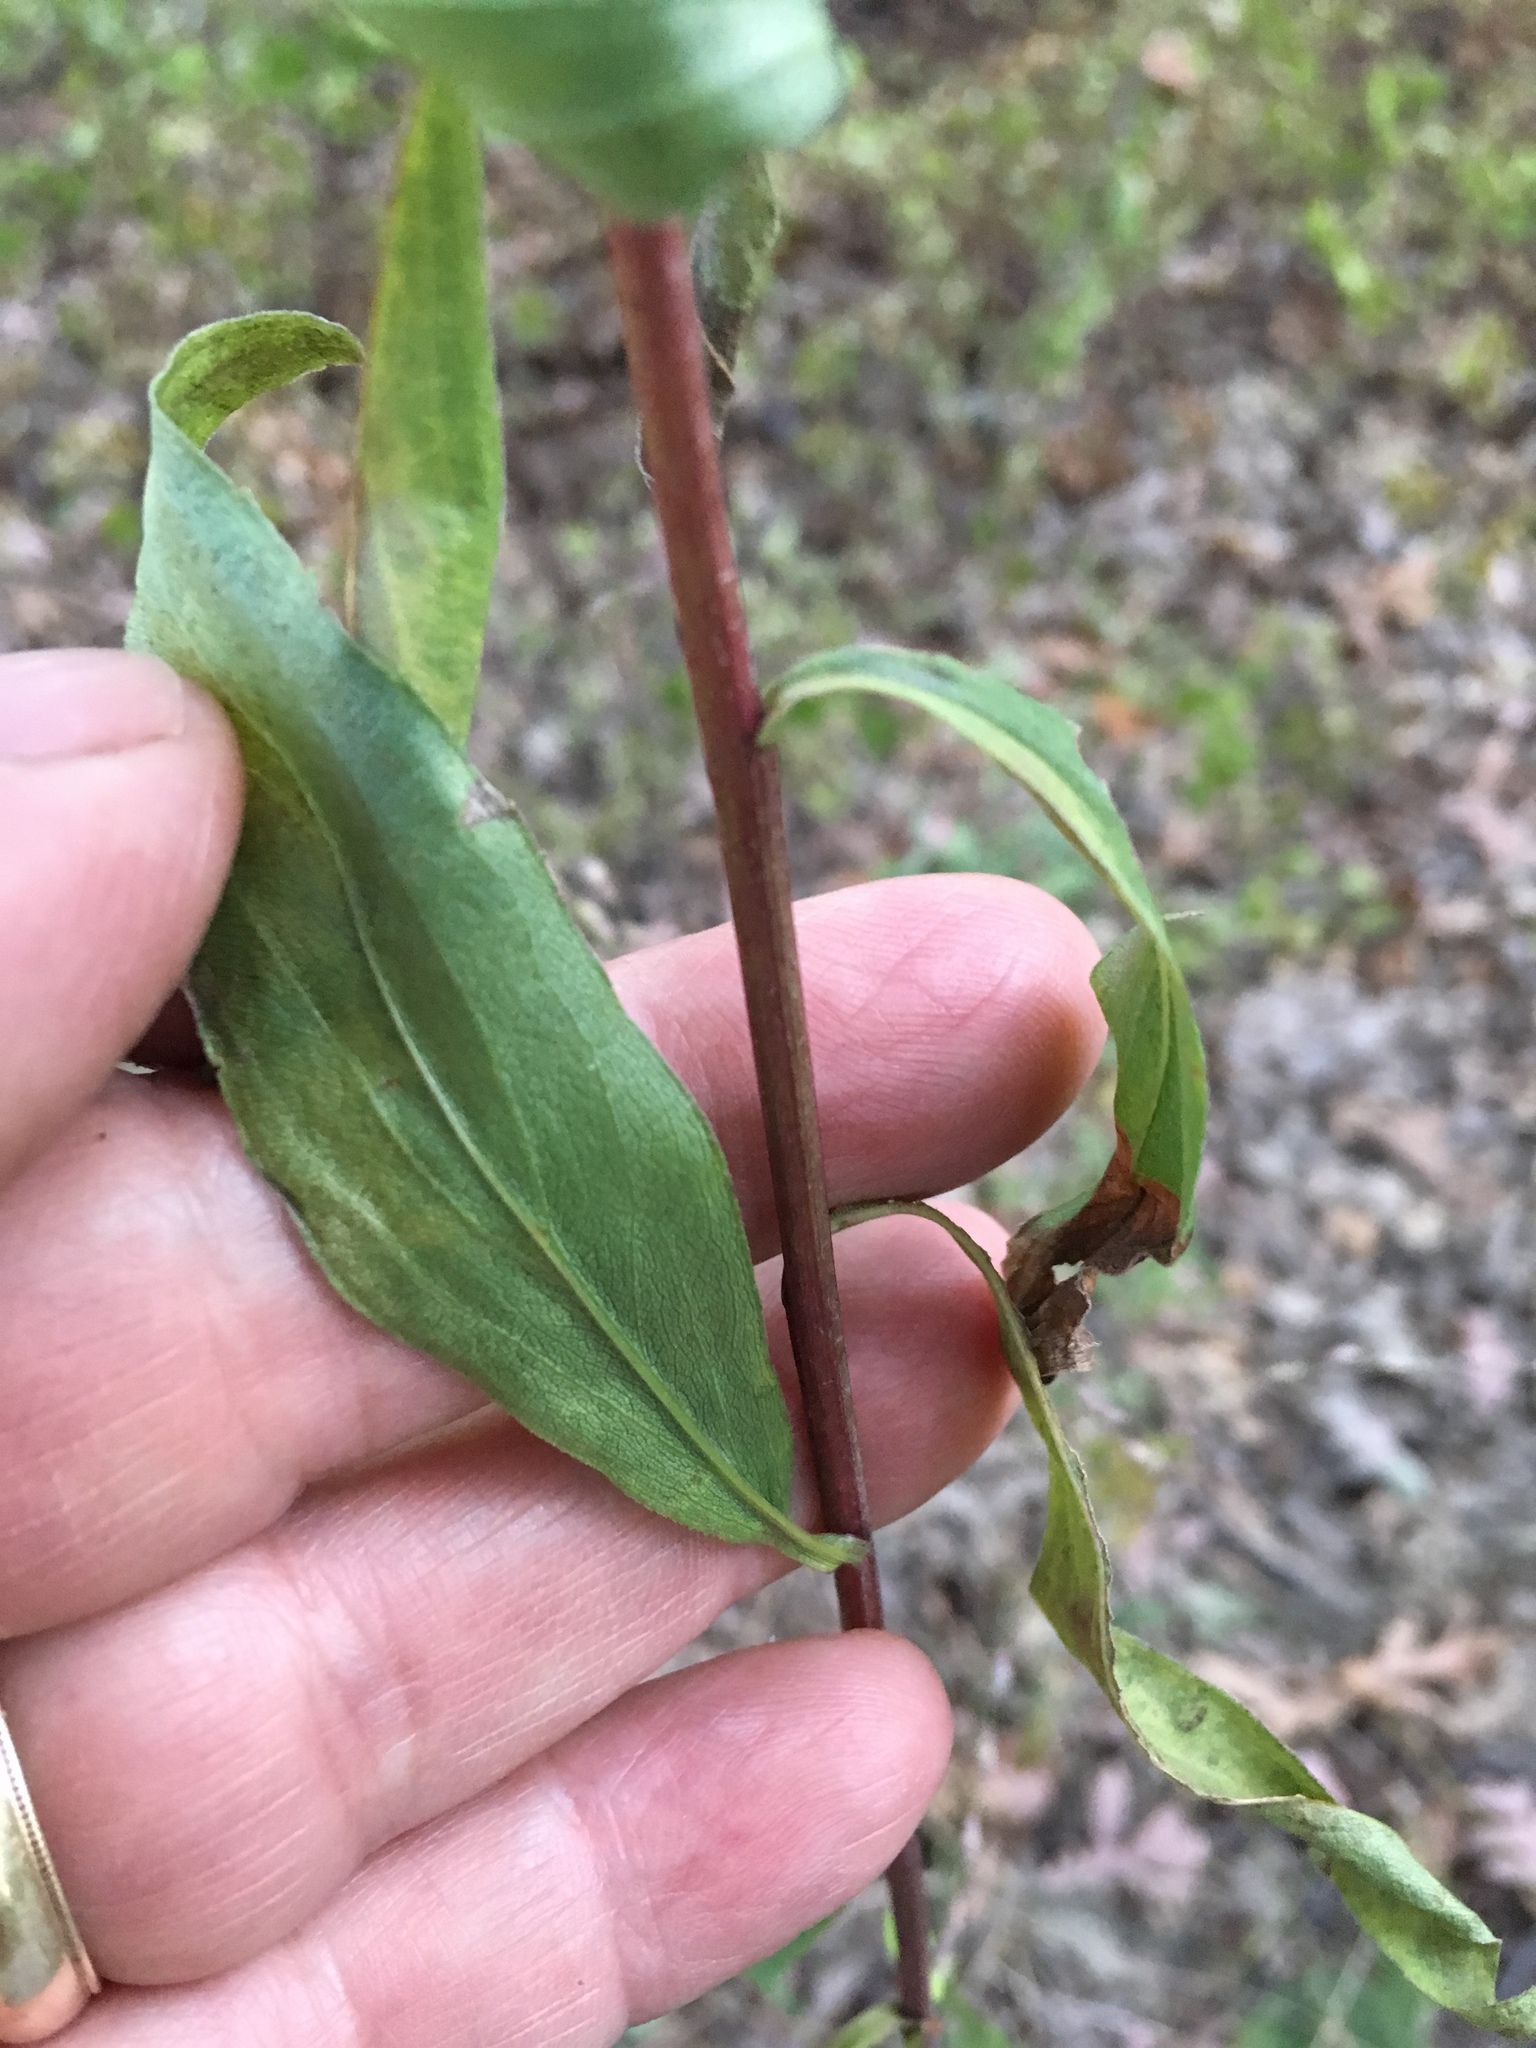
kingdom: Plantae
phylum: Tracheophyta
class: Magnoliopsida
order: Asterales
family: Asteraceae
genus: Solidago
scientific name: Solidago juncea
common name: Early goldenrod
